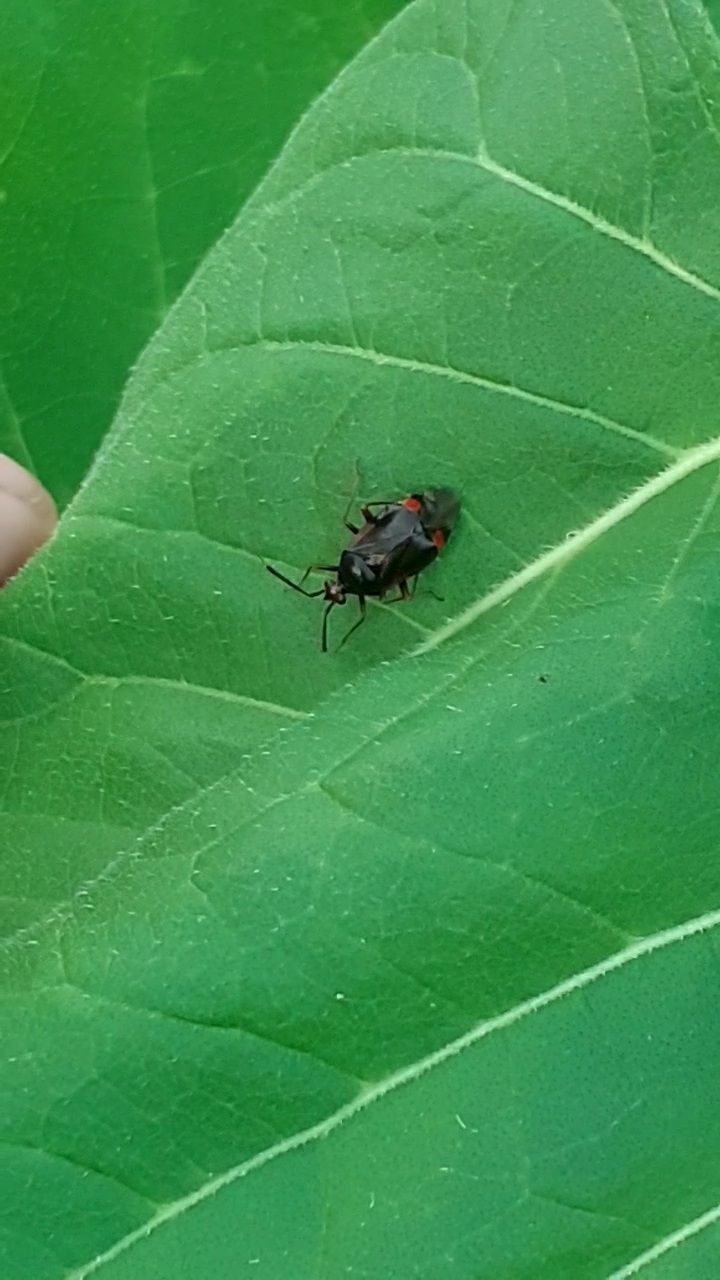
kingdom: Animalia
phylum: Arthropoda
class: Insecta
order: Hemiptera
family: Miridae
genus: Deraeocoris
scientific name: Deraeocoris ruber
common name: Plant bug
